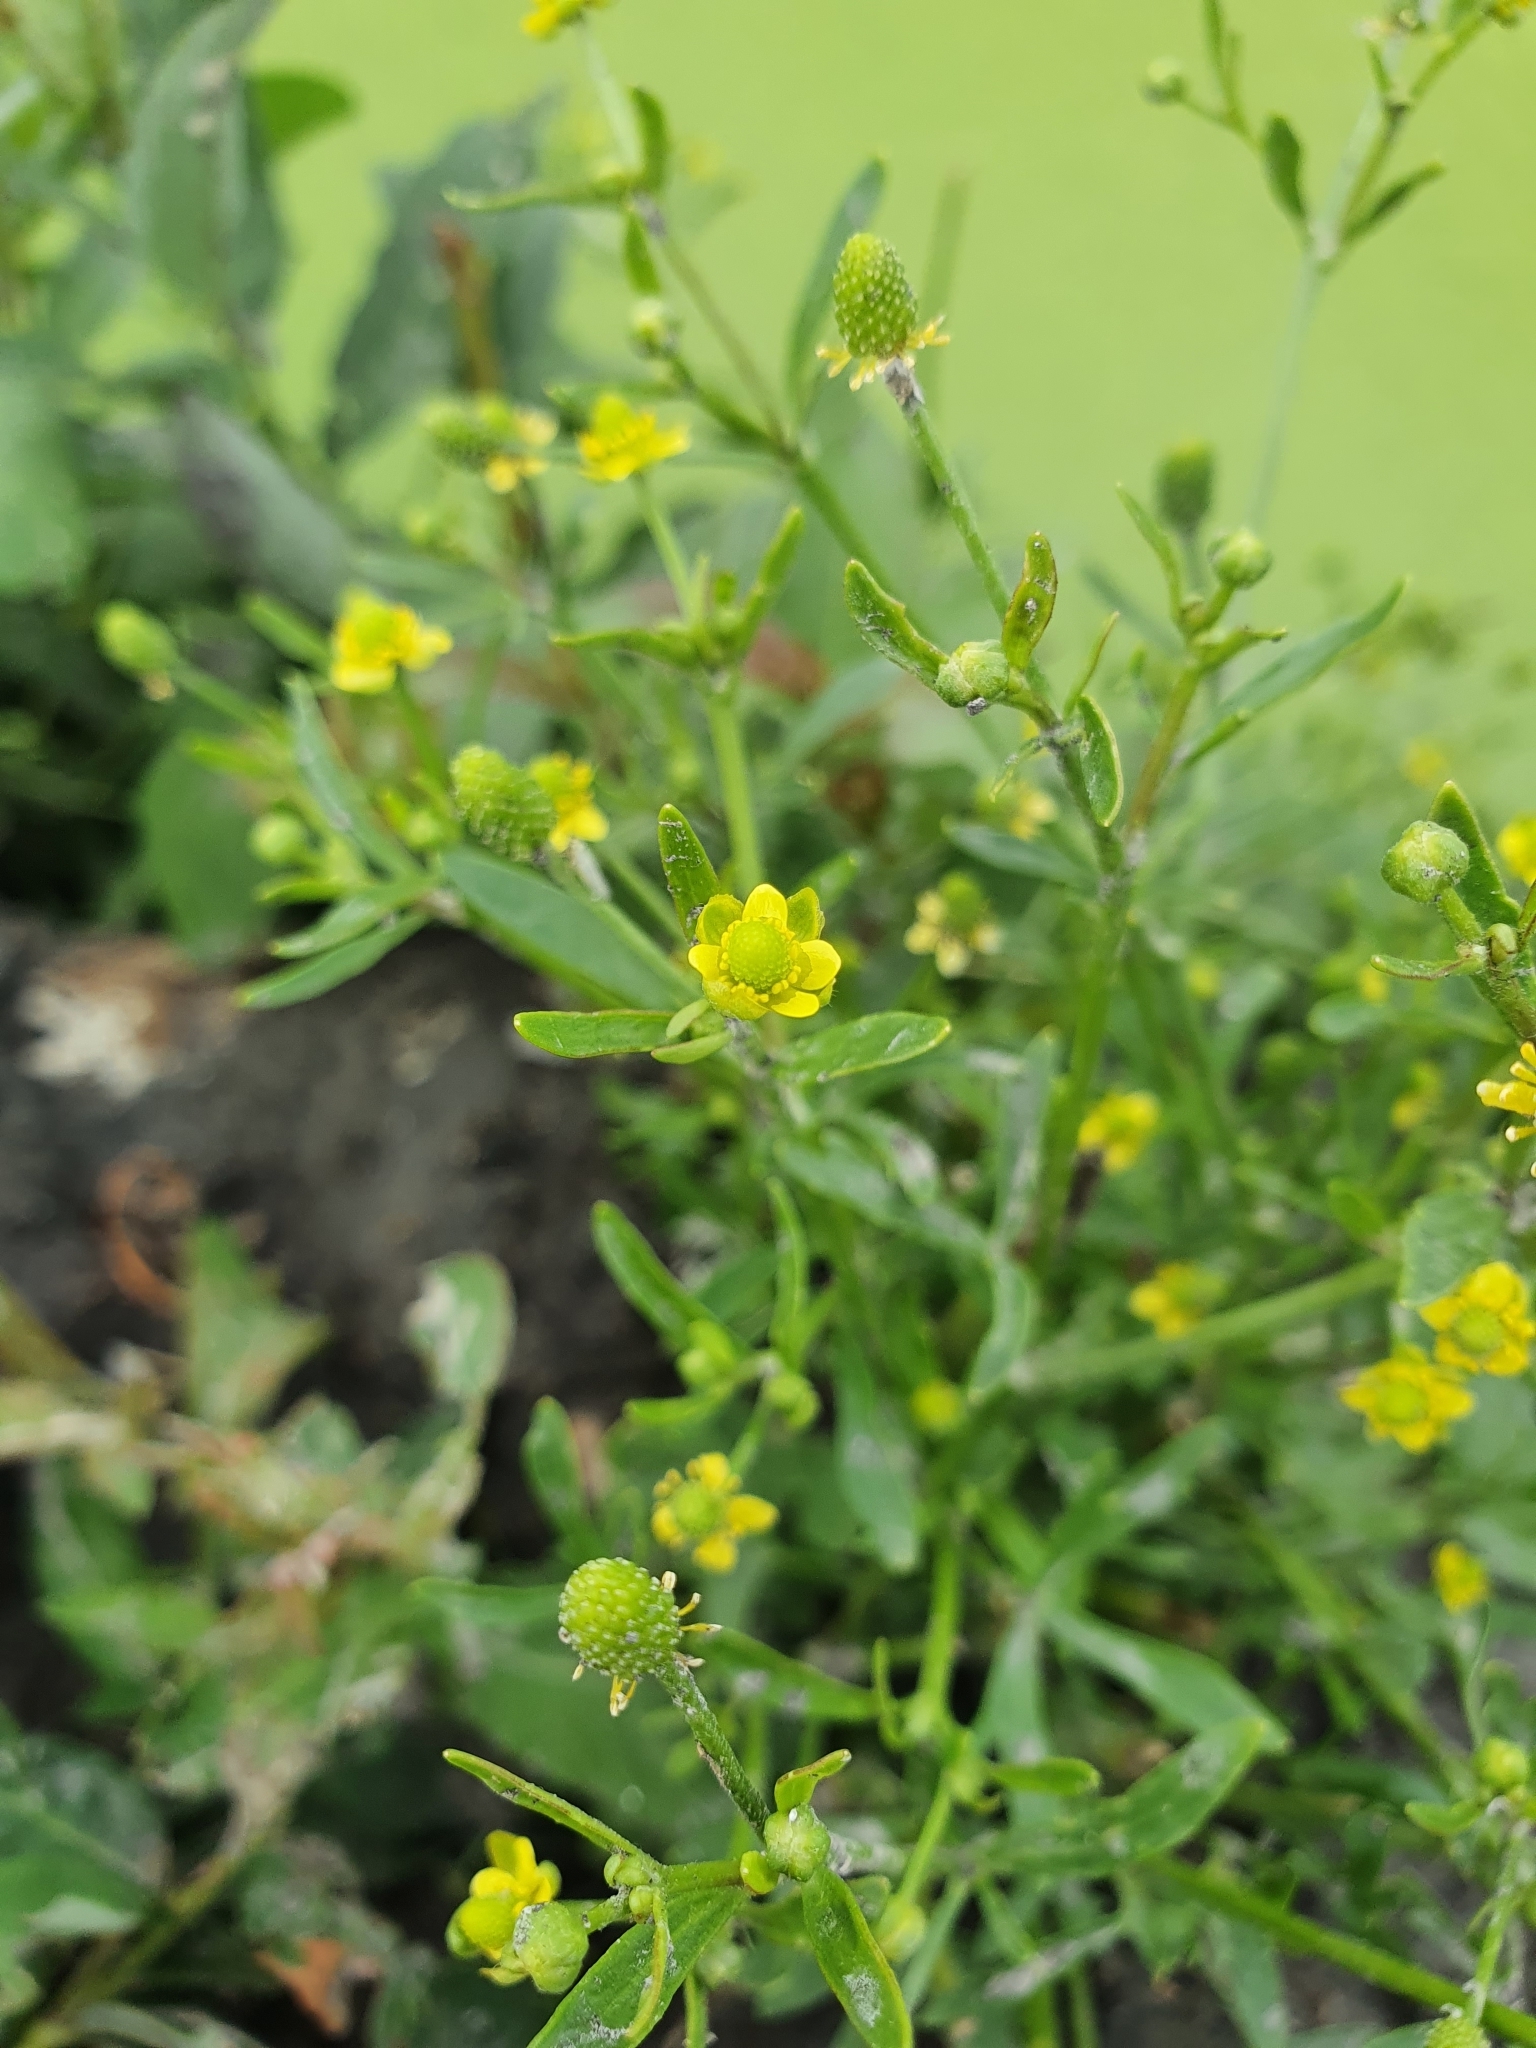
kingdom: Plantae
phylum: Tracheophyta
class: Magnoliopsida
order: Ranunculales
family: Ranunculaceae
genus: Ranunculus
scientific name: Ranunculus sceleratus
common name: Celery-leaved buttercup
